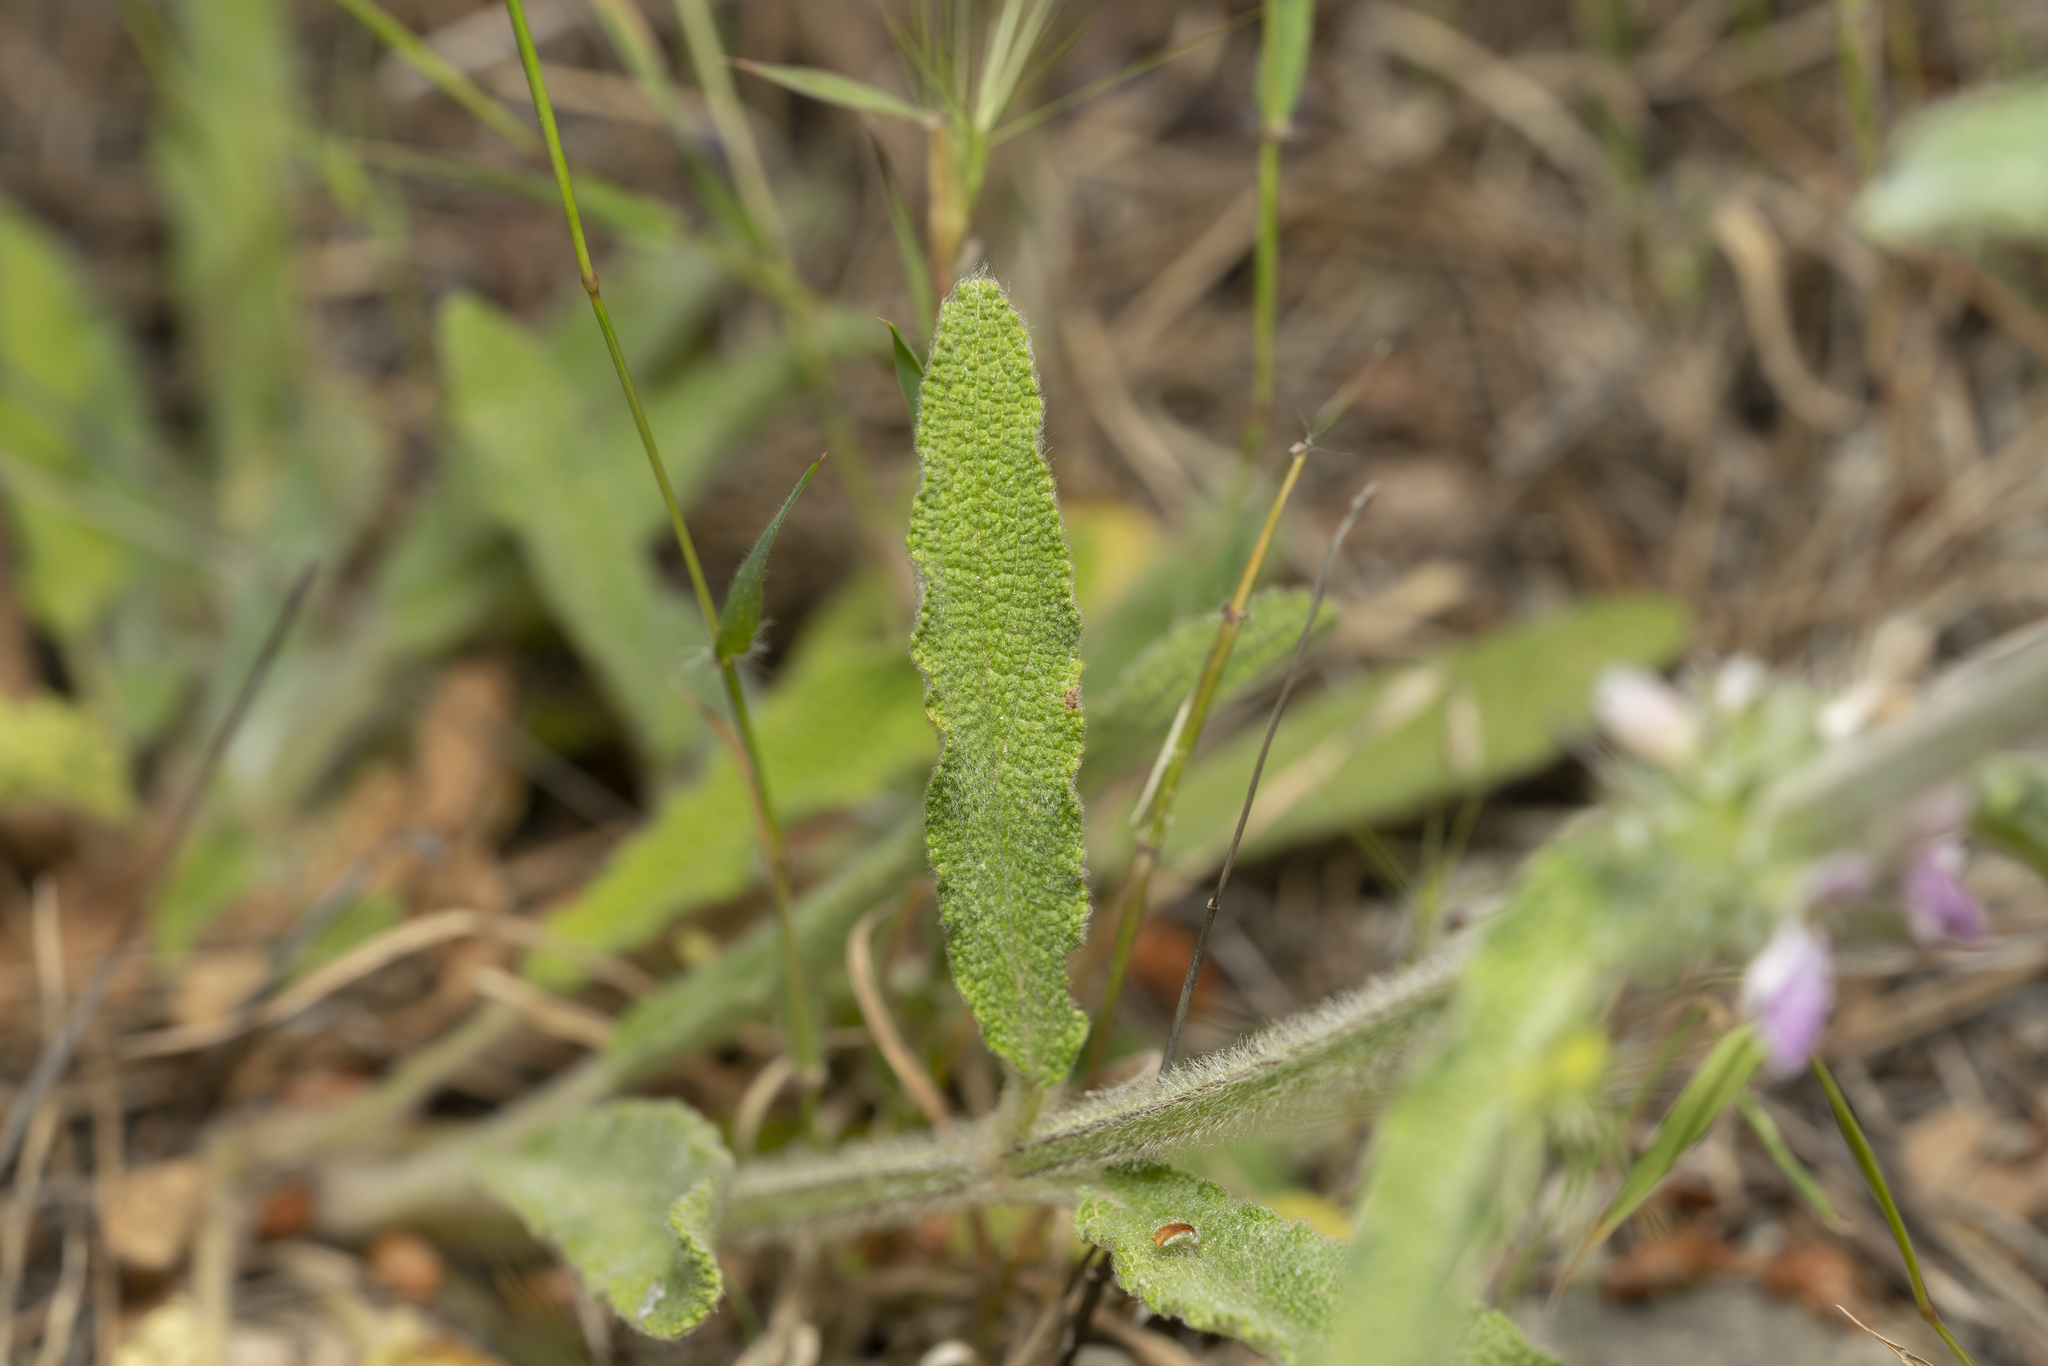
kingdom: Plantae
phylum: Tracheophyta
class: Magnoliopsida
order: Lamiales
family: Lamiaceae
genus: Stachys
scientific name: Stachys cretica
